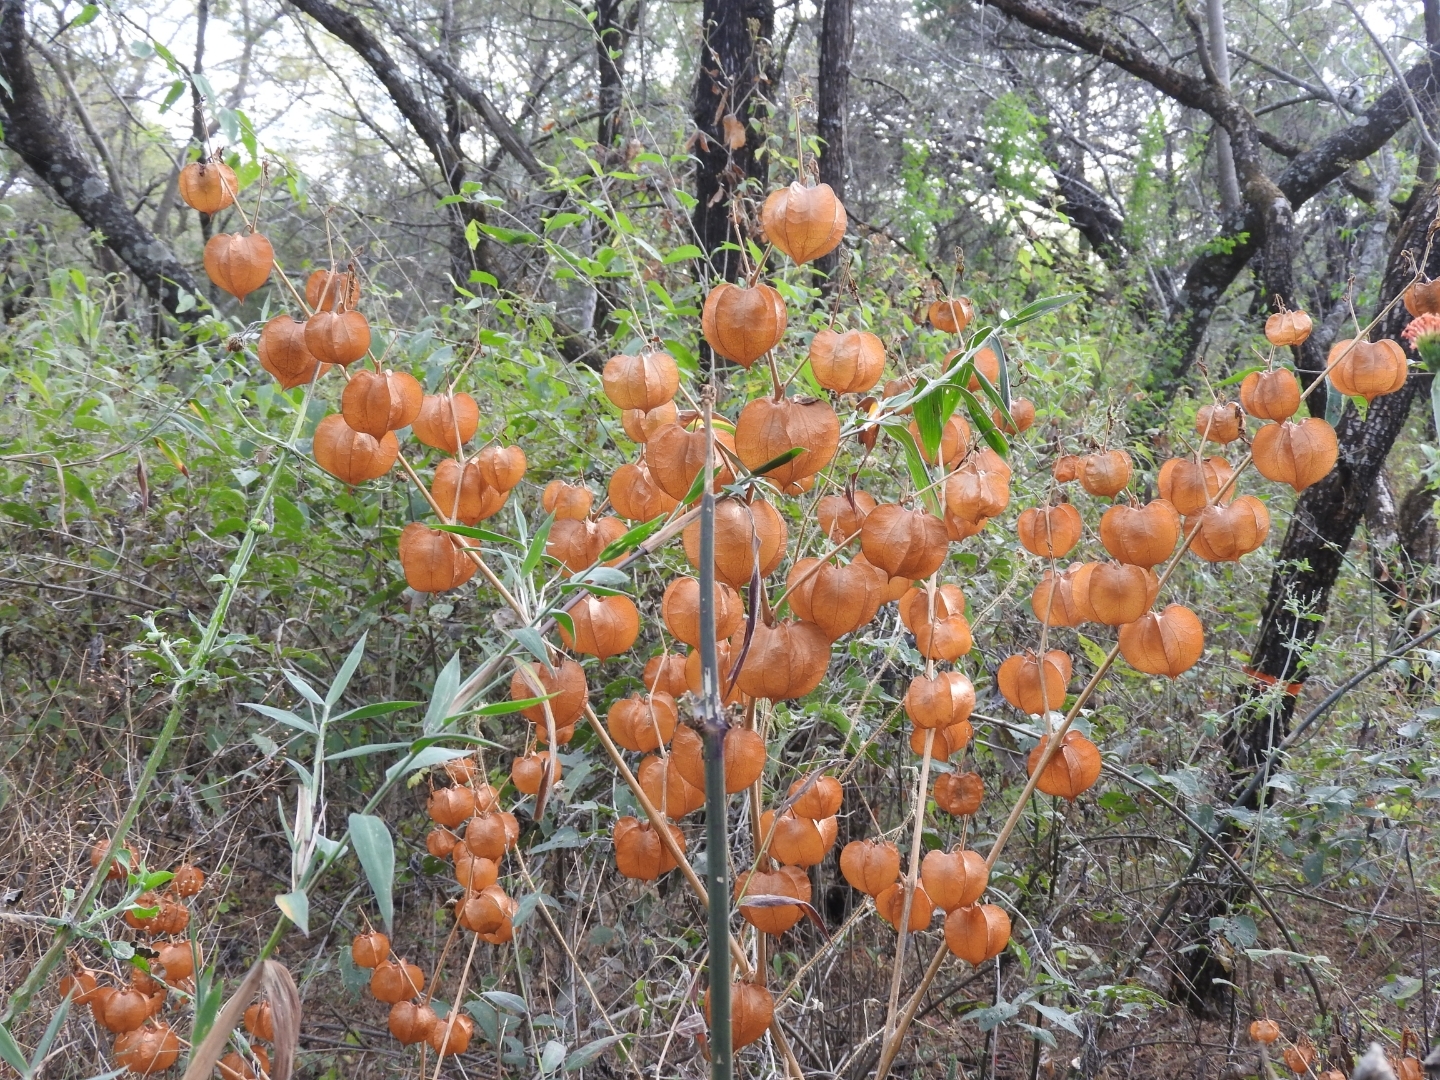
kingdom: Plantae
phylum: Tracheophyta
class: Magnoliopsida
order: Solanales
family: Solanaceae
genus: Physalis
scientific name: Physalis nicandroides
